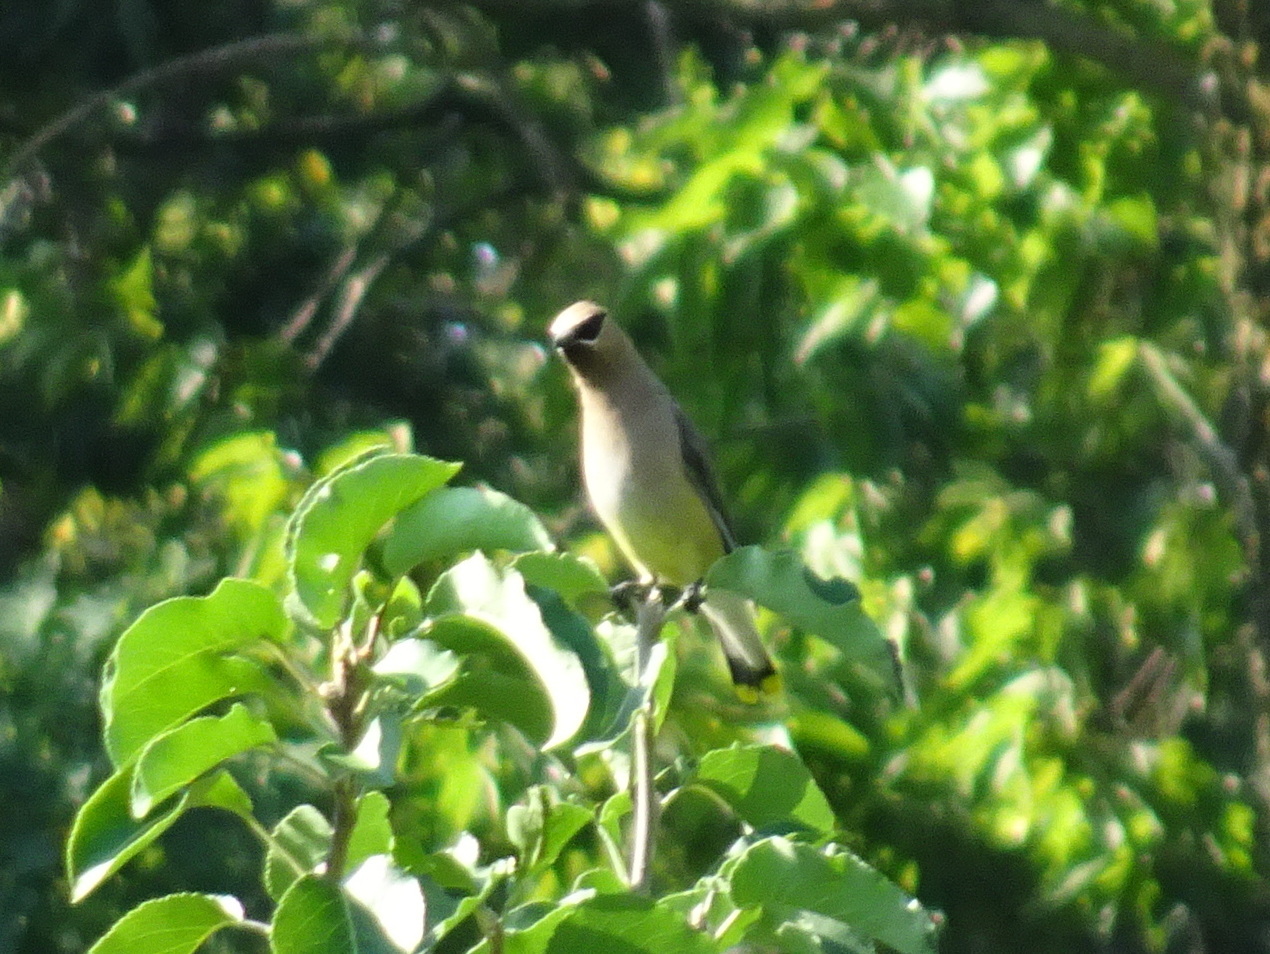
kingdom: Animalia
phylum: Chordata
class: Aves
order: Passeriformes
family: Bombycillidae
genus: Bombycilla
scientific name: Bombycilla cedrorum
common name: Cedar waxwing
